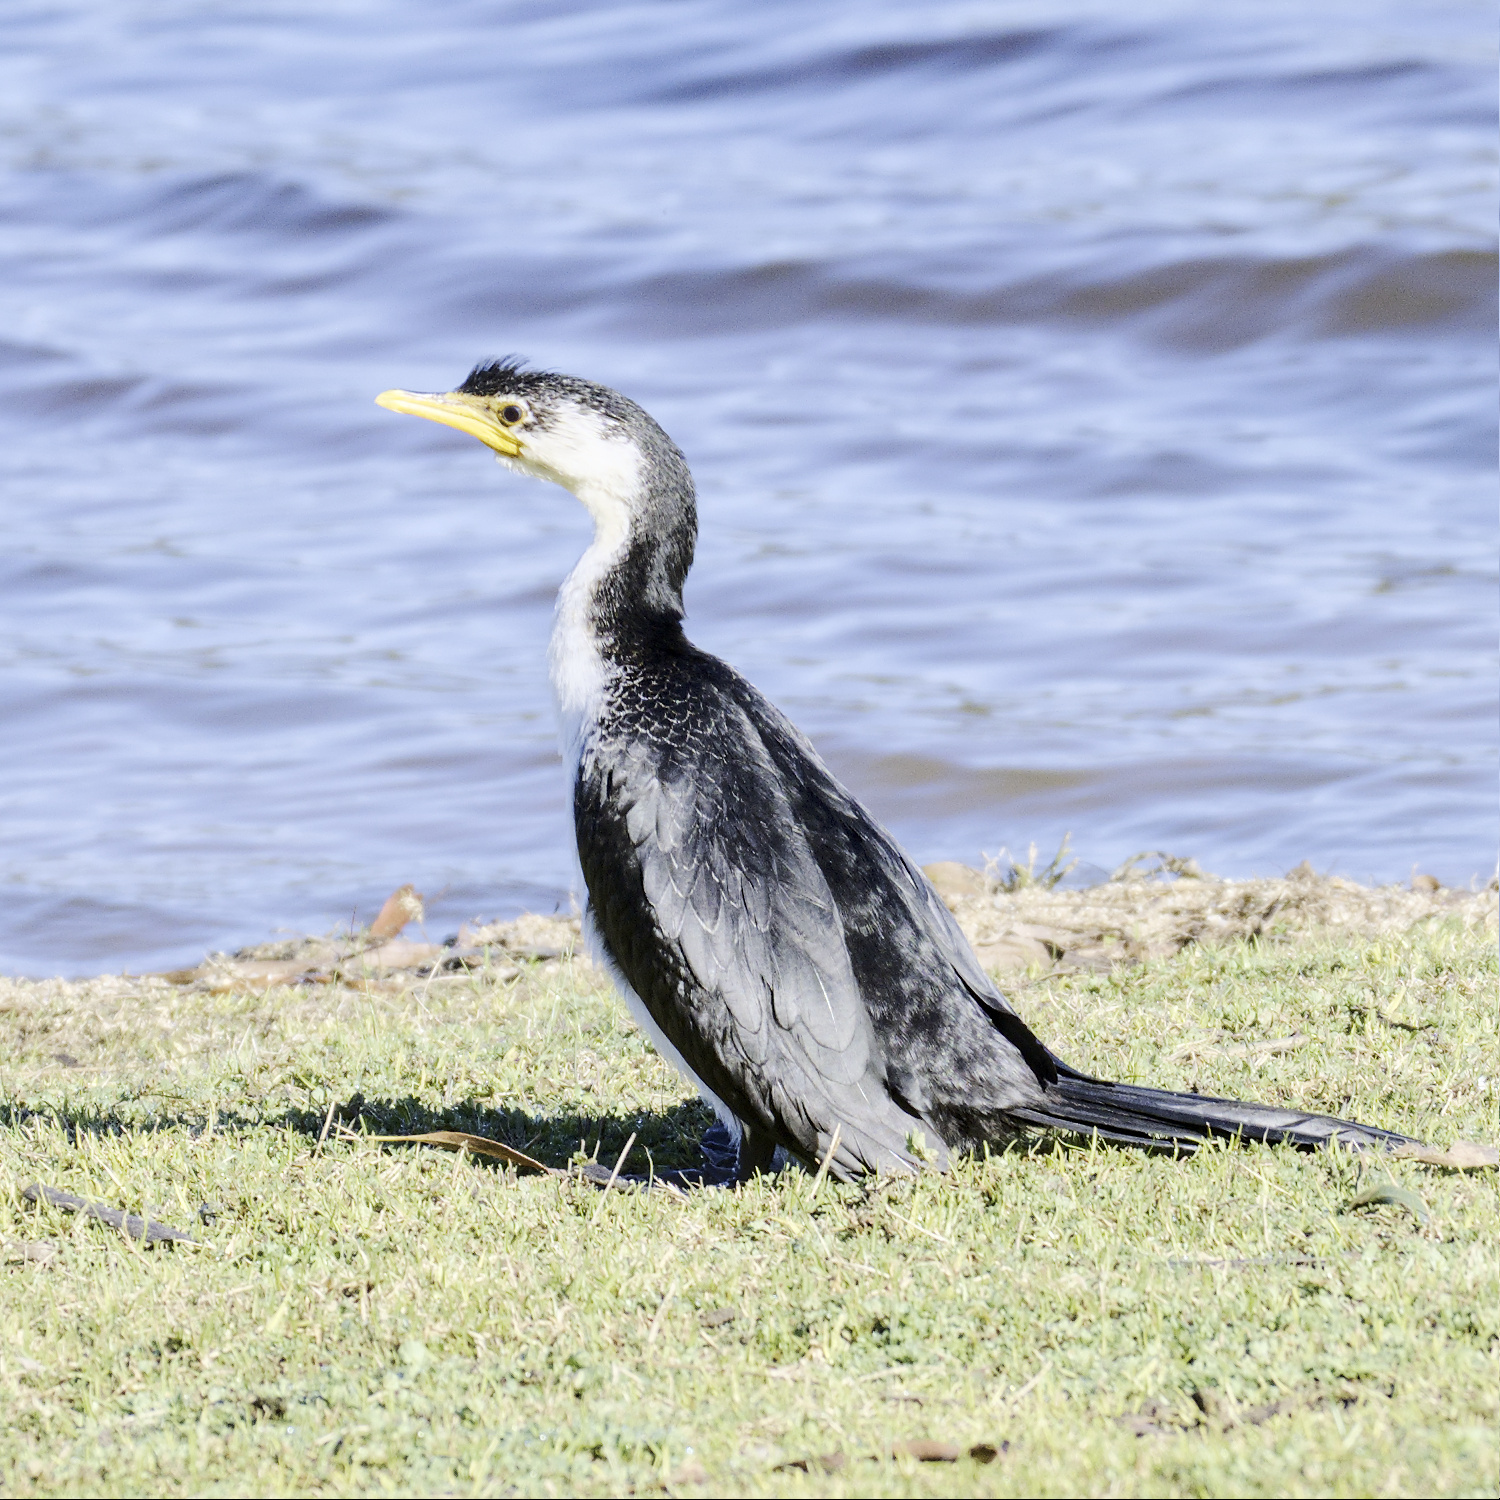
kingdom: Animalia
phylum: Chordata
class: Aves
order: Suliformes
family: Phalacrocoracidae
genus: Microcarbo
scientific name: Microcarbo melanoleucos
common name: Little pied cormorant
